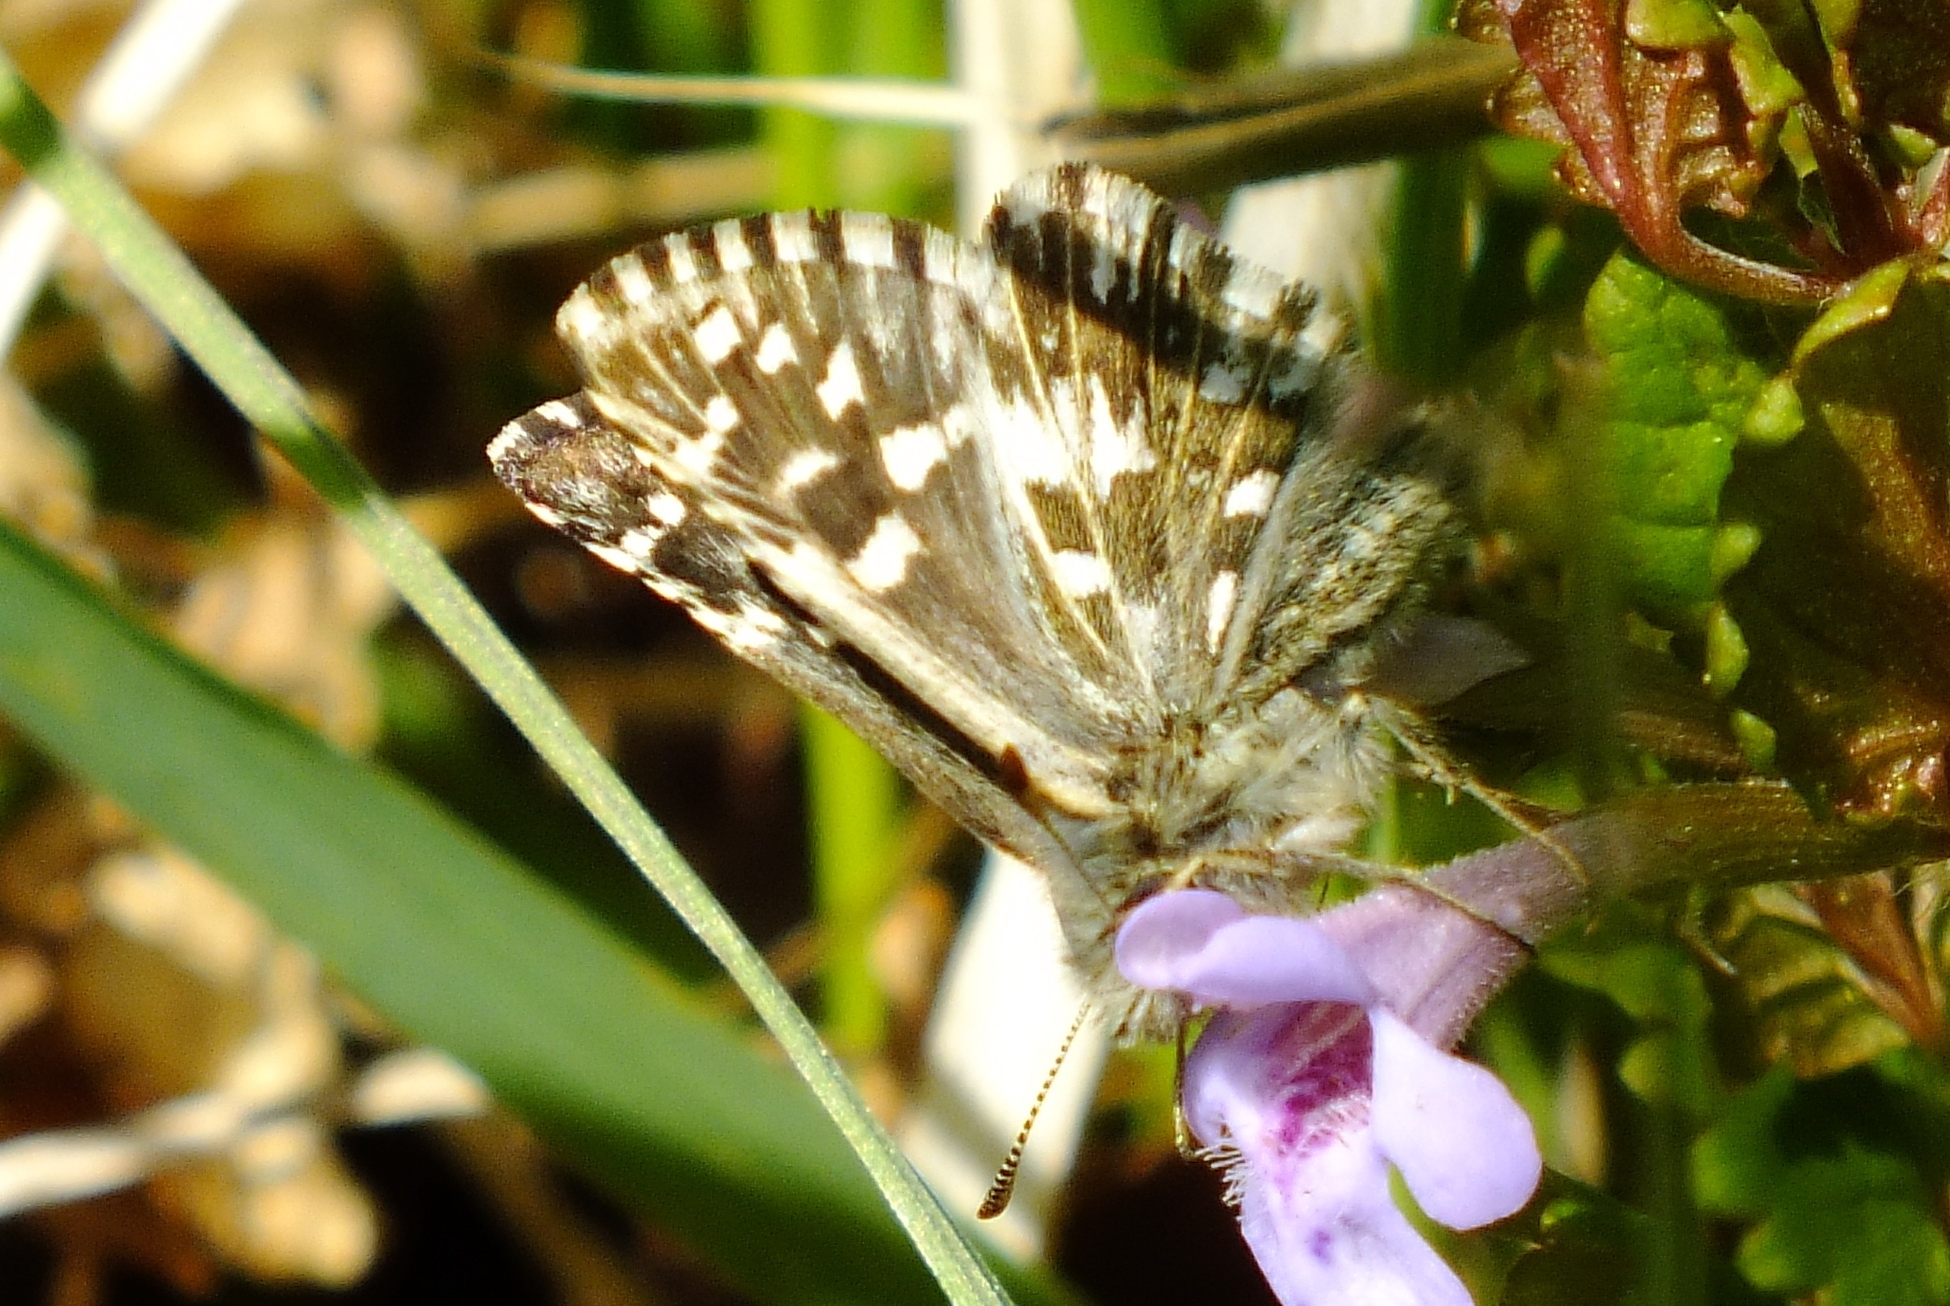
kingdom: Animalia
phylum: Arthropoda
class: Insecta
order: Lepidoptera
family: Hesperiidae
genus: Pyrgus
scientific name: Pyrgus malvae
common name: Grizzled skipper
